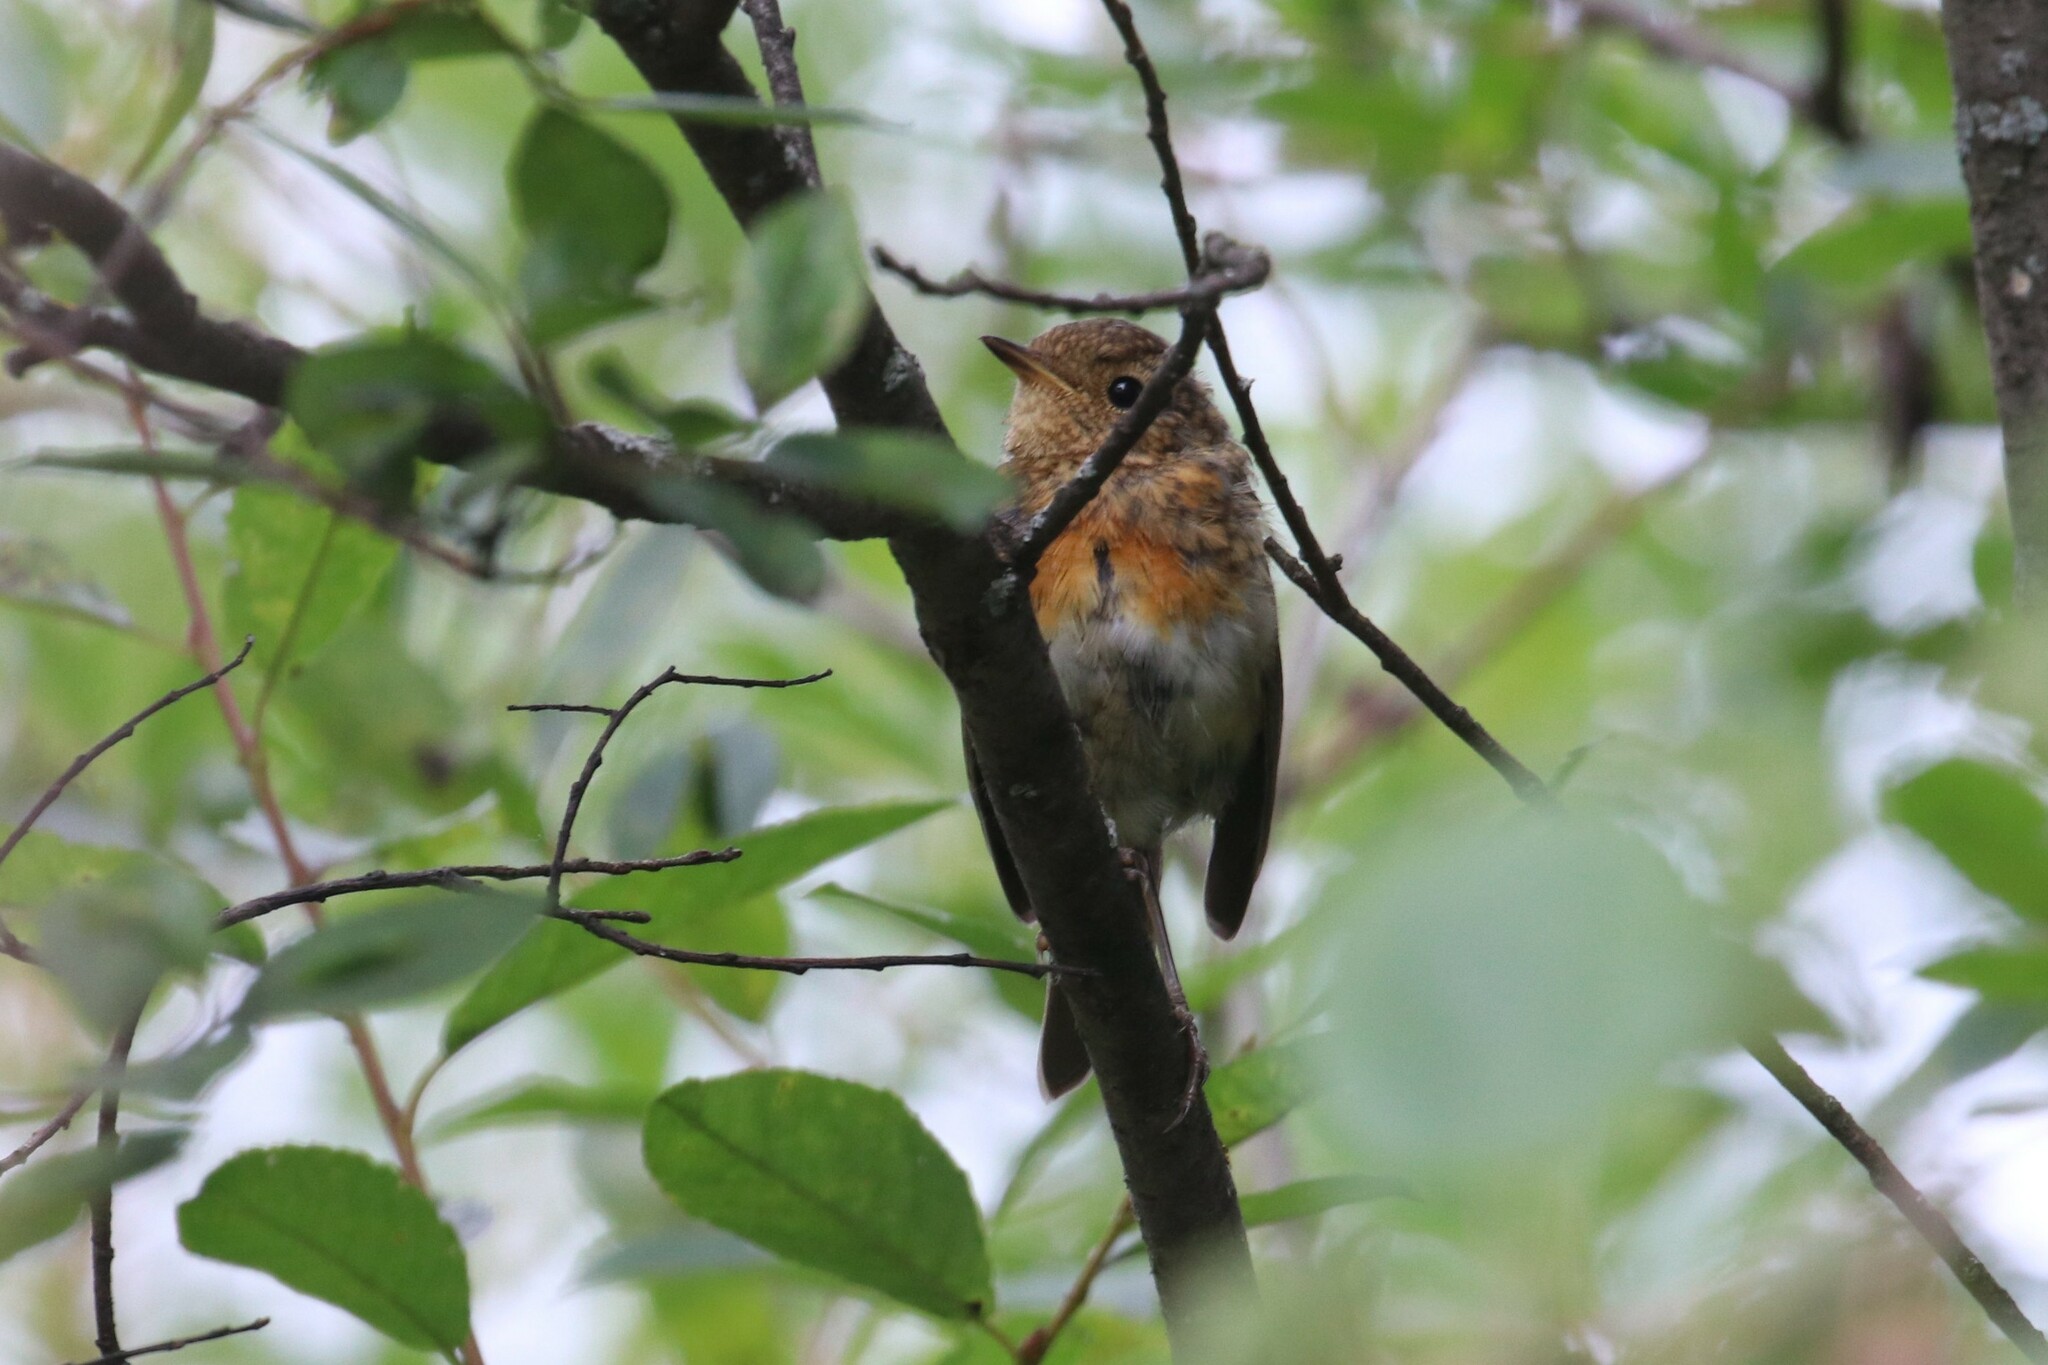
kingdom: Animalia
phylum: Chordata
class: Aves
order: Passeriformes
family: Muscicapidae
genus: Erithacus
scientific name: Erithacus rubecula
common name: European robin
